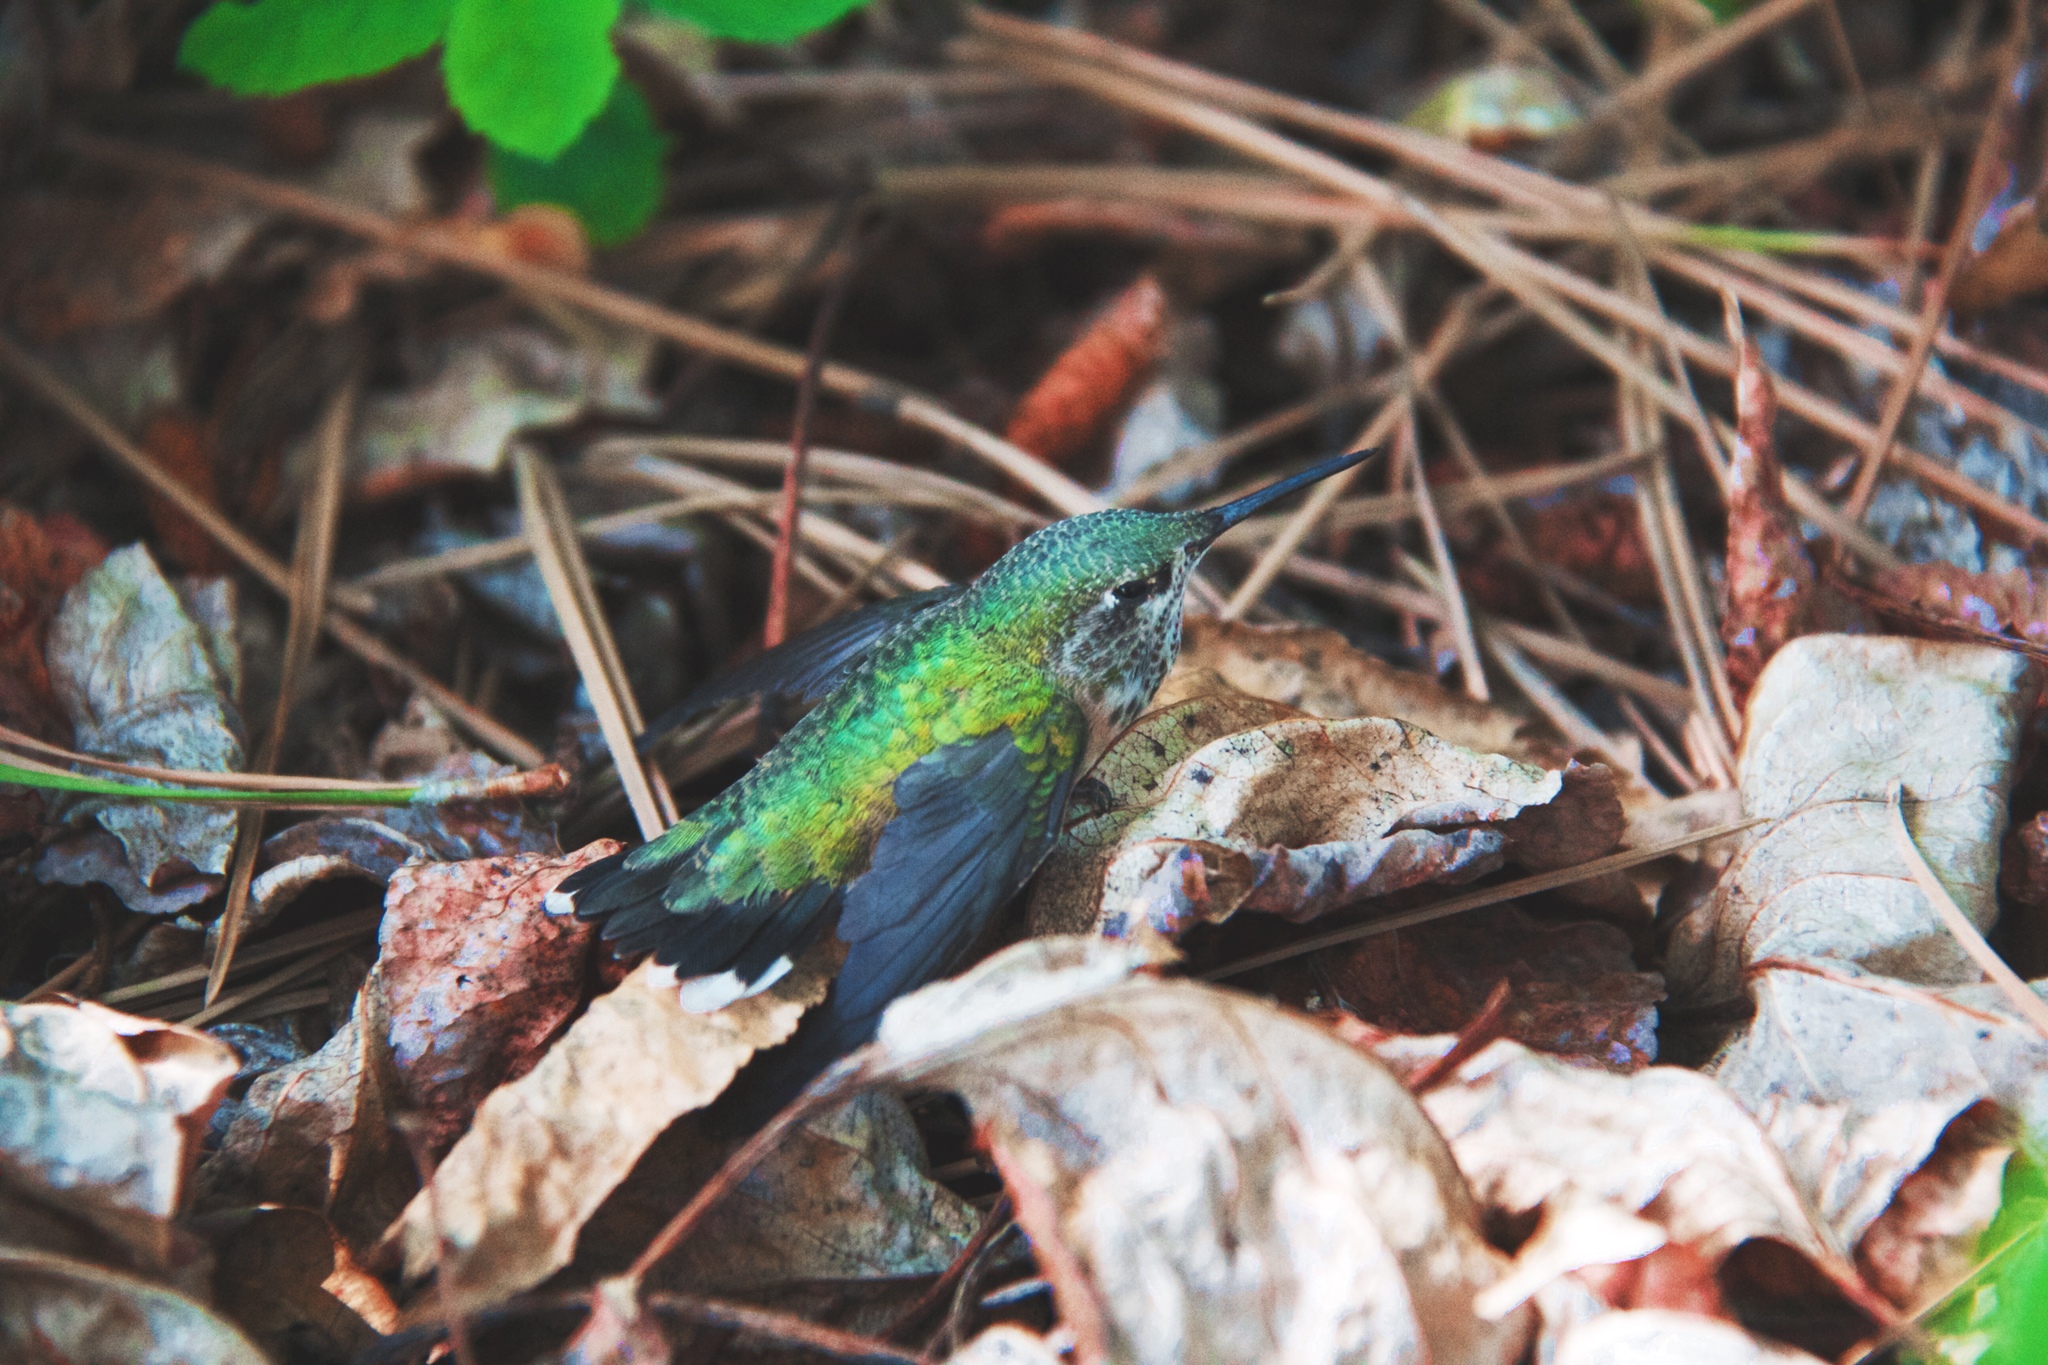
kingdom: Animalia
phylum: Chordata
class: Aves
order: Apodiformes
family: Trochilidae
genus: Selasphorus
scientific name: Selasphorus calliope
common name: Calliope hummingbird
